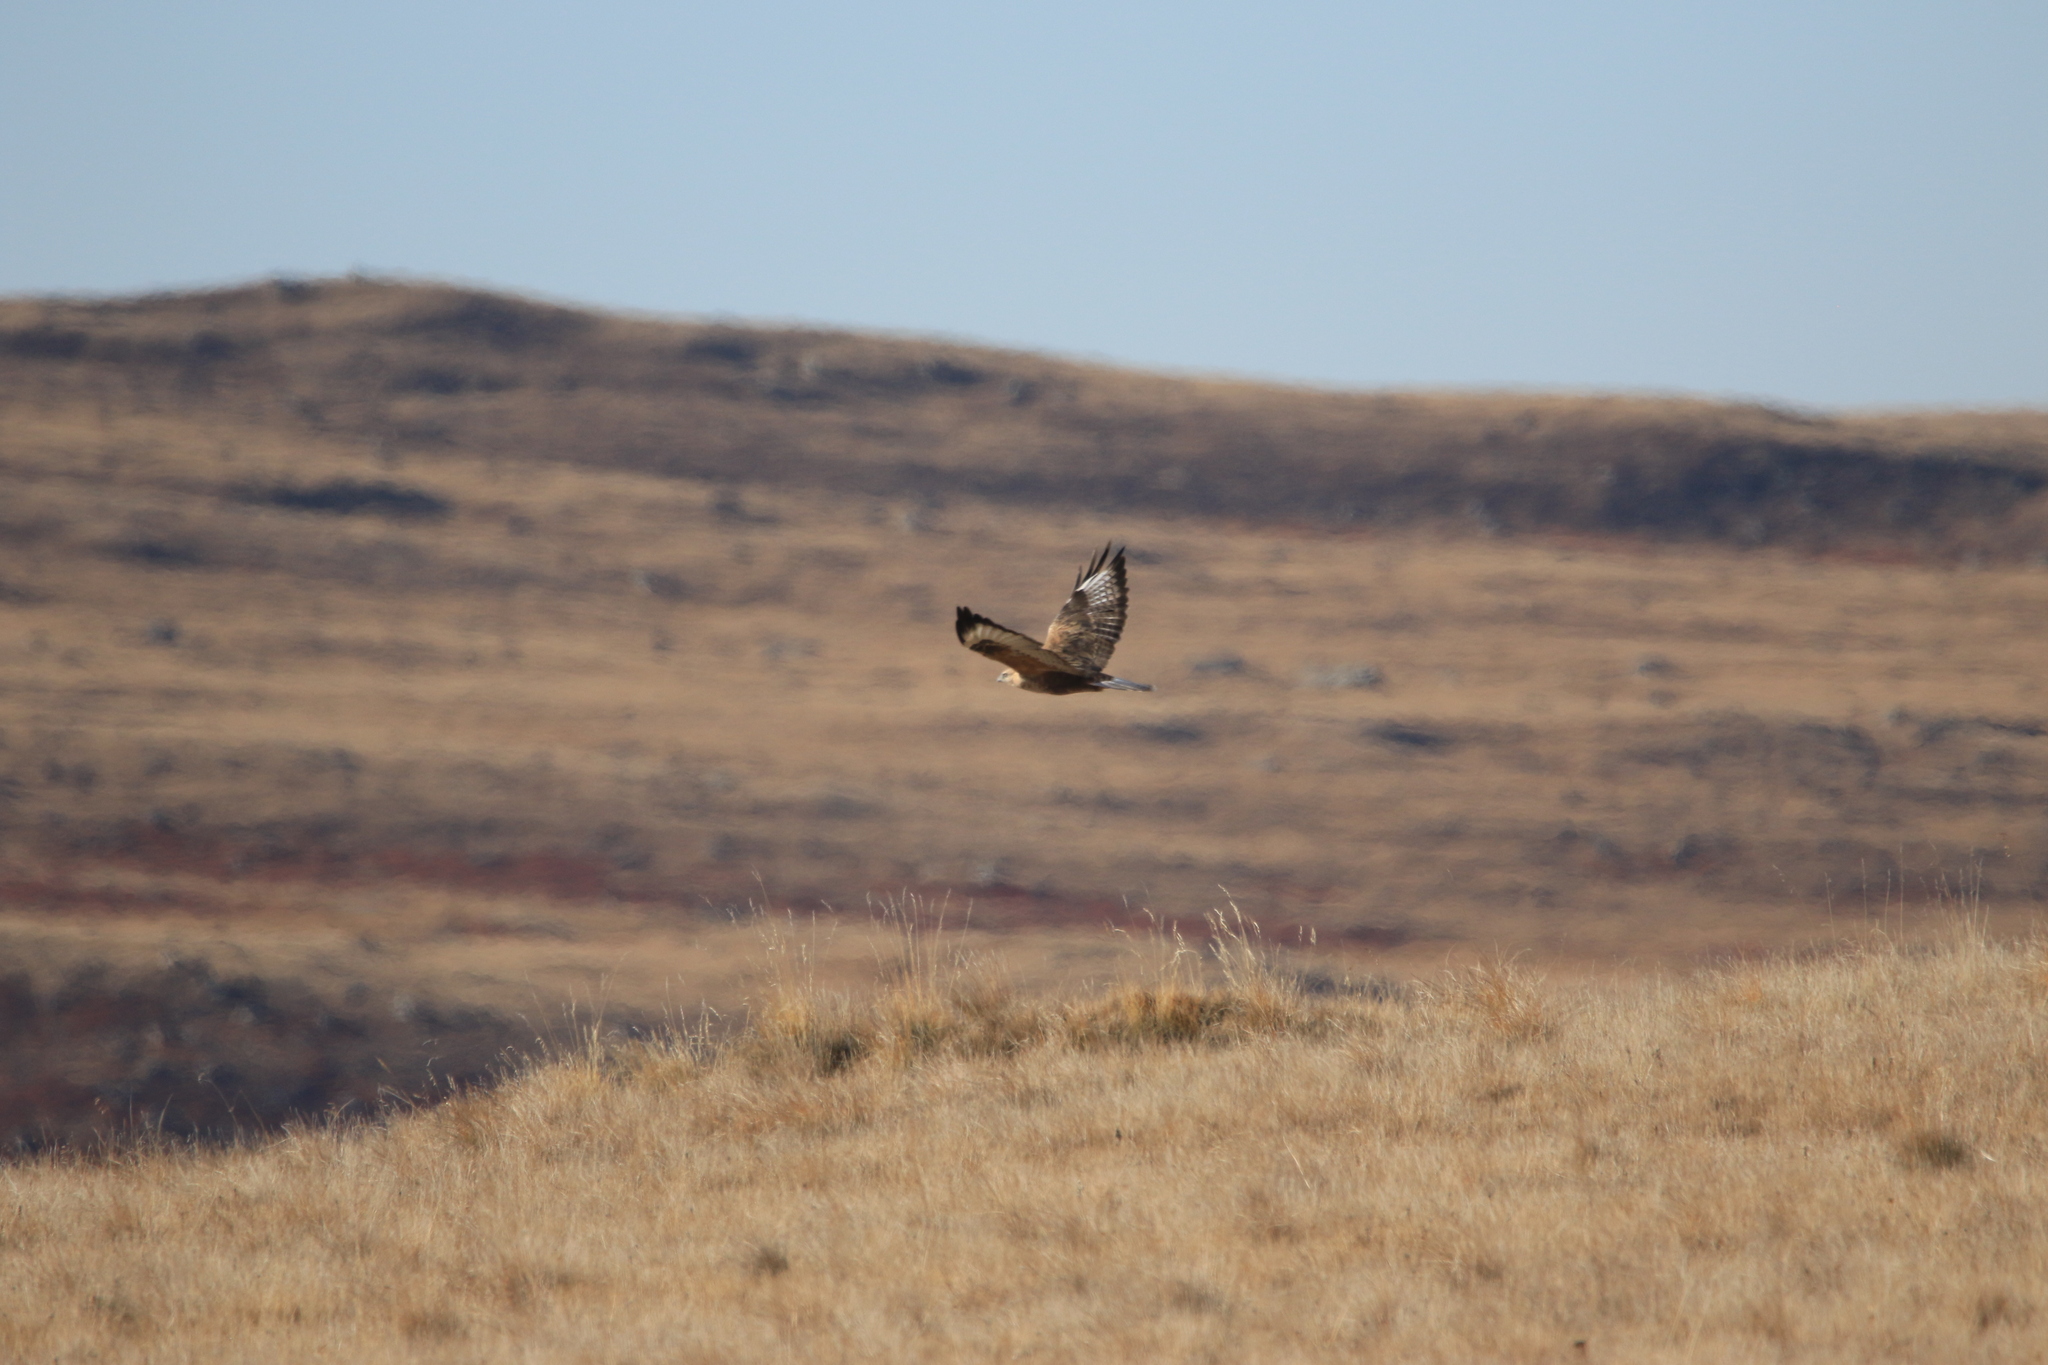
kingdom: Animalia
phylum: Chordata
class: Aves
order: Accipitriformes
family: Accipitridae
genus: Buteo
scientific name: Buteo hemilasius
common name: Upland buzzard
